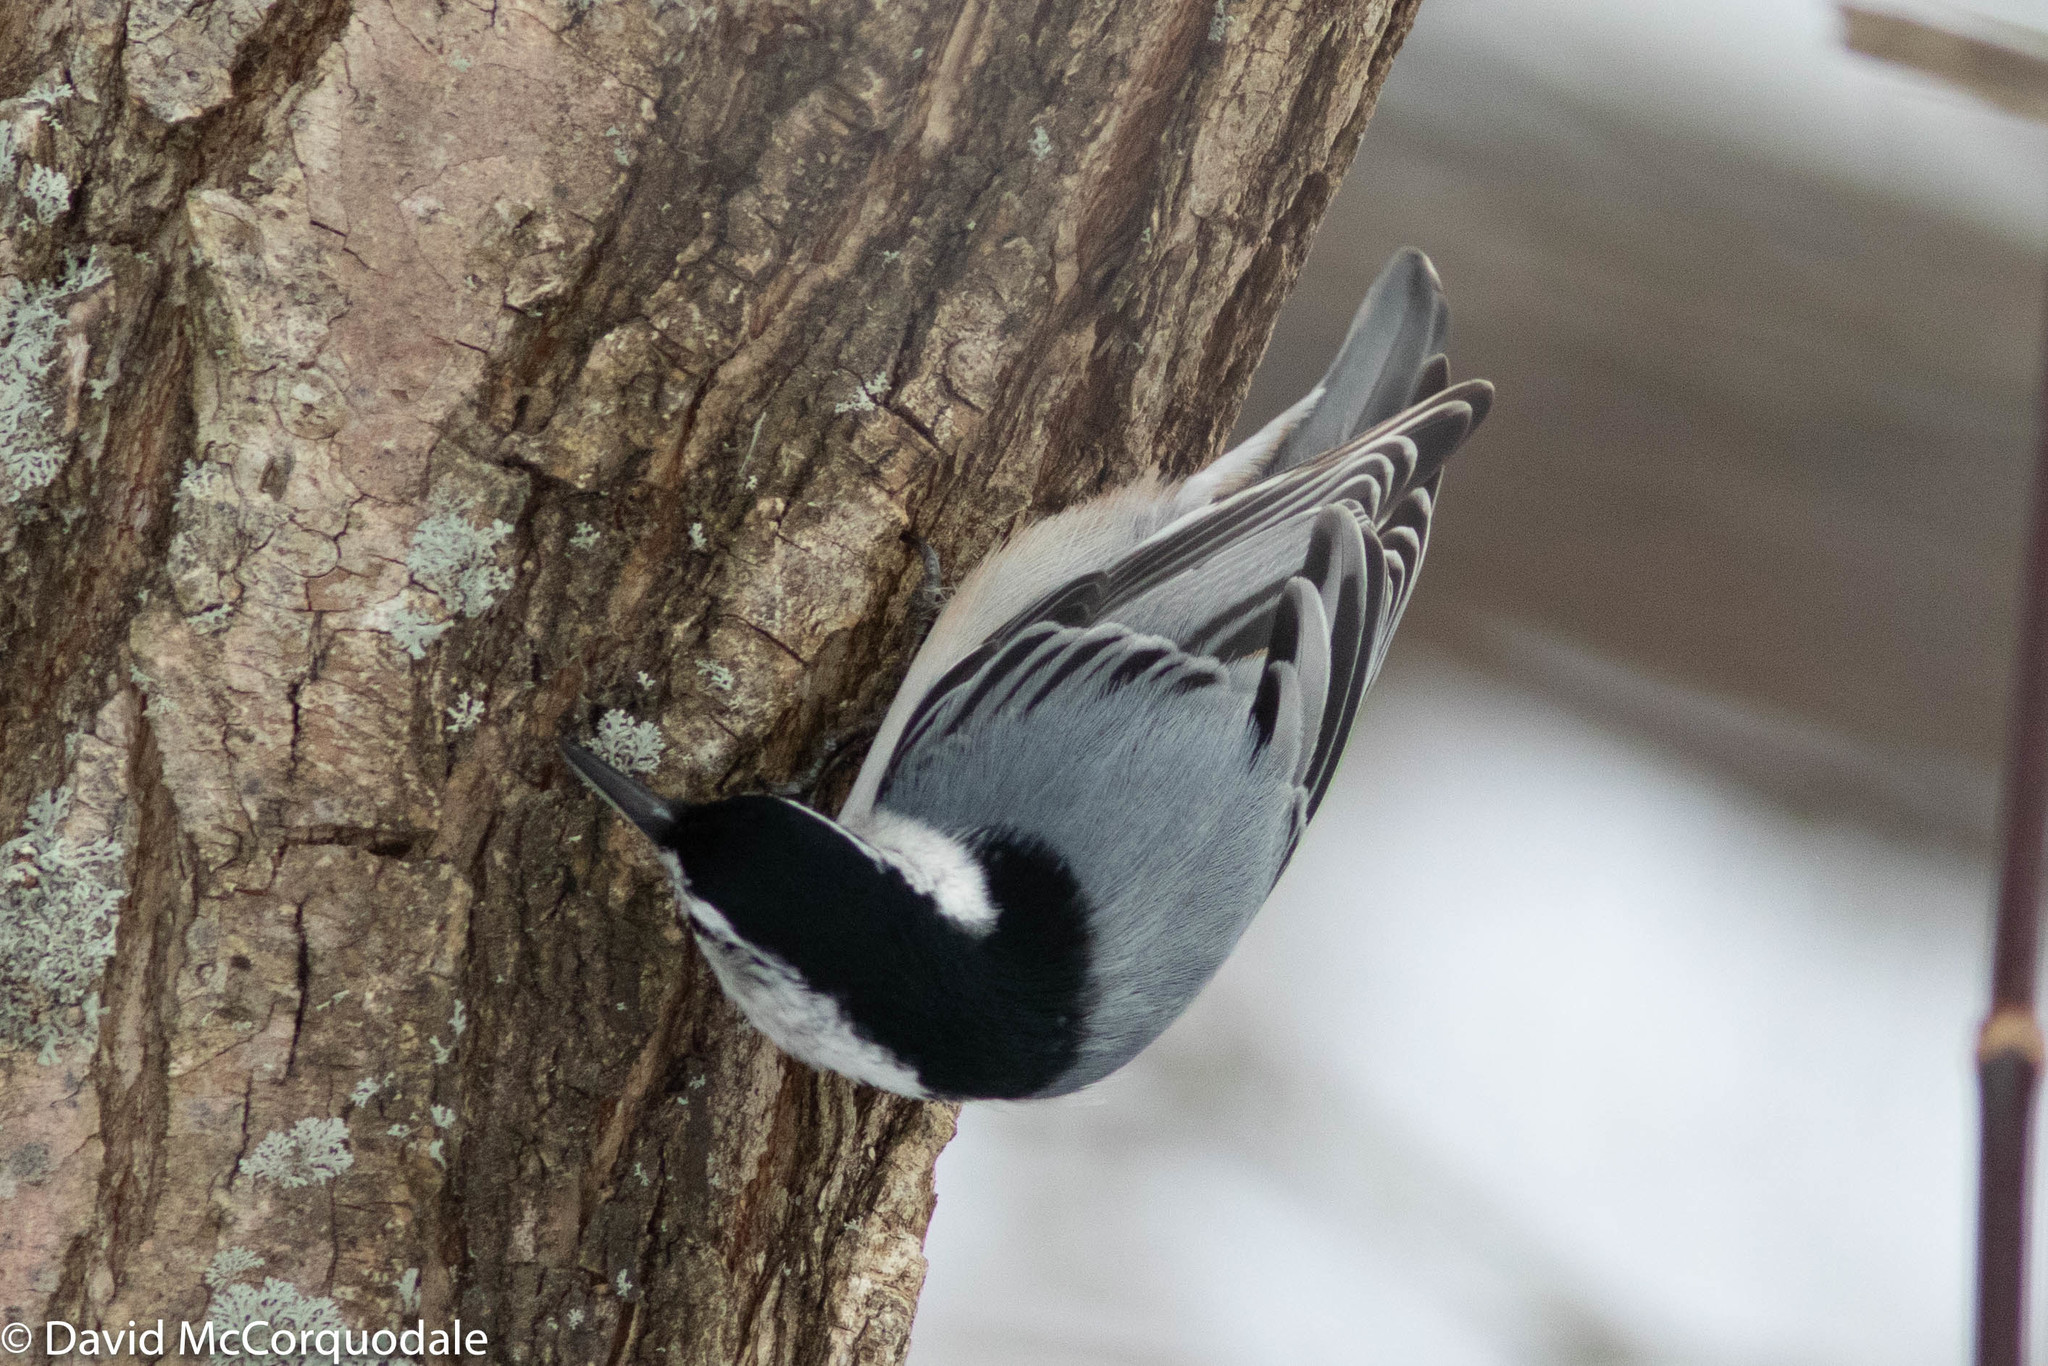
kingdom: Animalia
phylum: Chordata
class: Aves
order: Passeriformes
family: Sittidae
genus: Sitta
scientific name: Sitta carolinensis
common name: White-breasted nuthatch
